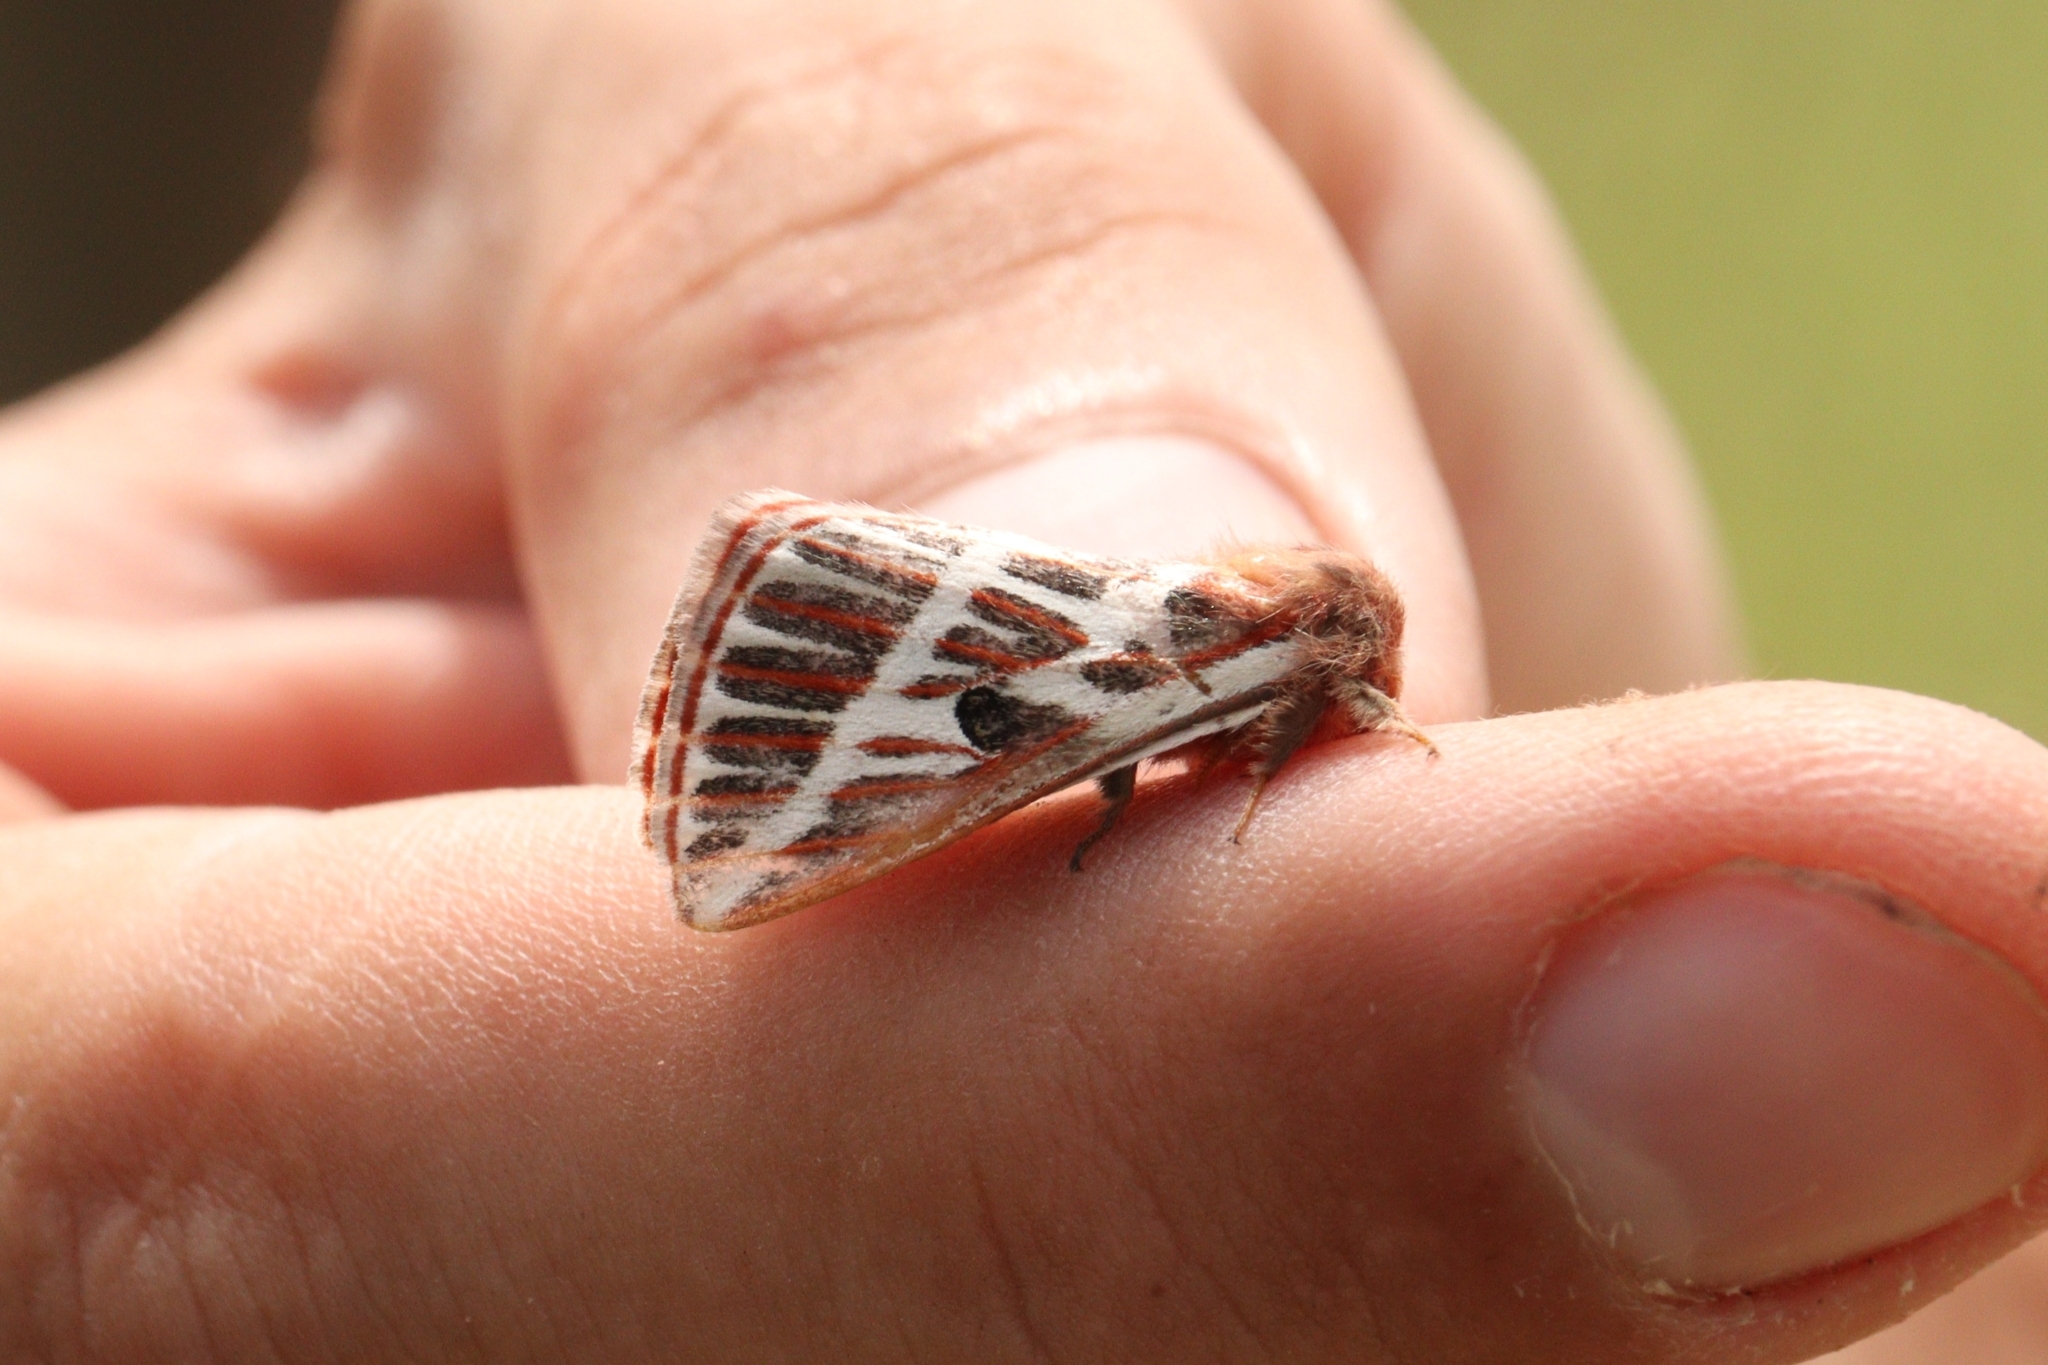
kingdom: Animalia
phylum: Arthropoda
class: Insecta
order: Lepidoptera
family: Saturniidae
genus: Eubergia
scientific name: Eubergia argyrea
